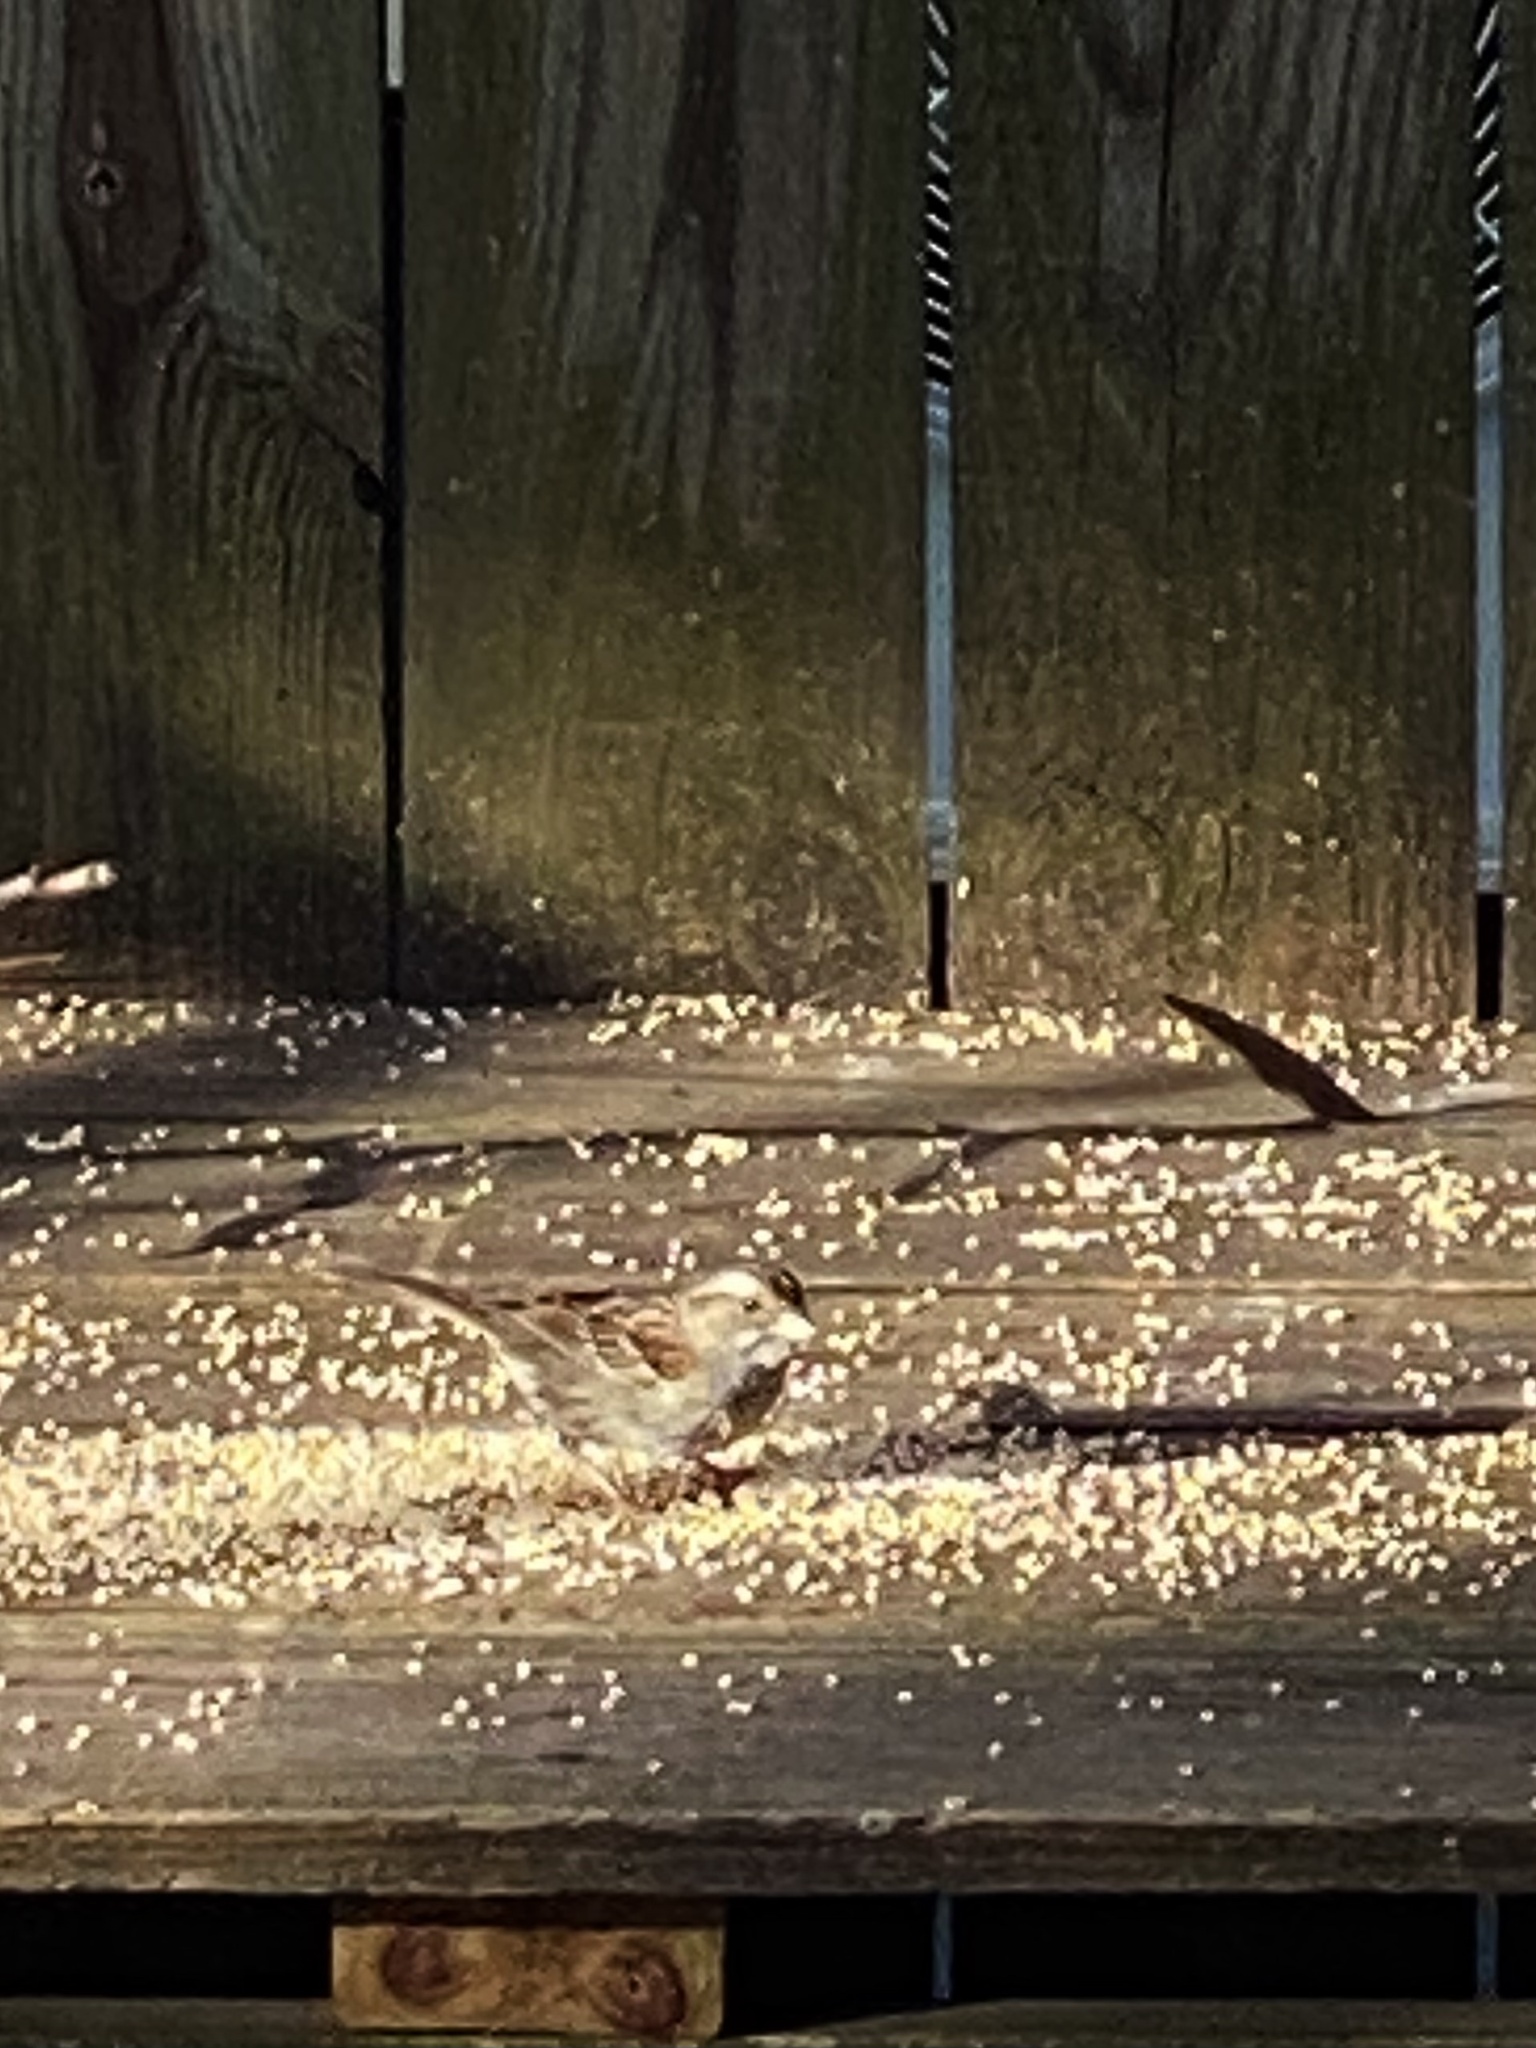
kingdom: Animalia
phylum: Chordata
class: Aves
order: Passeriformes
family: Passerellidae
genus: Zonotrichia
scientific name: Zonotrichia albicollis
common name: White-throated sparrow
